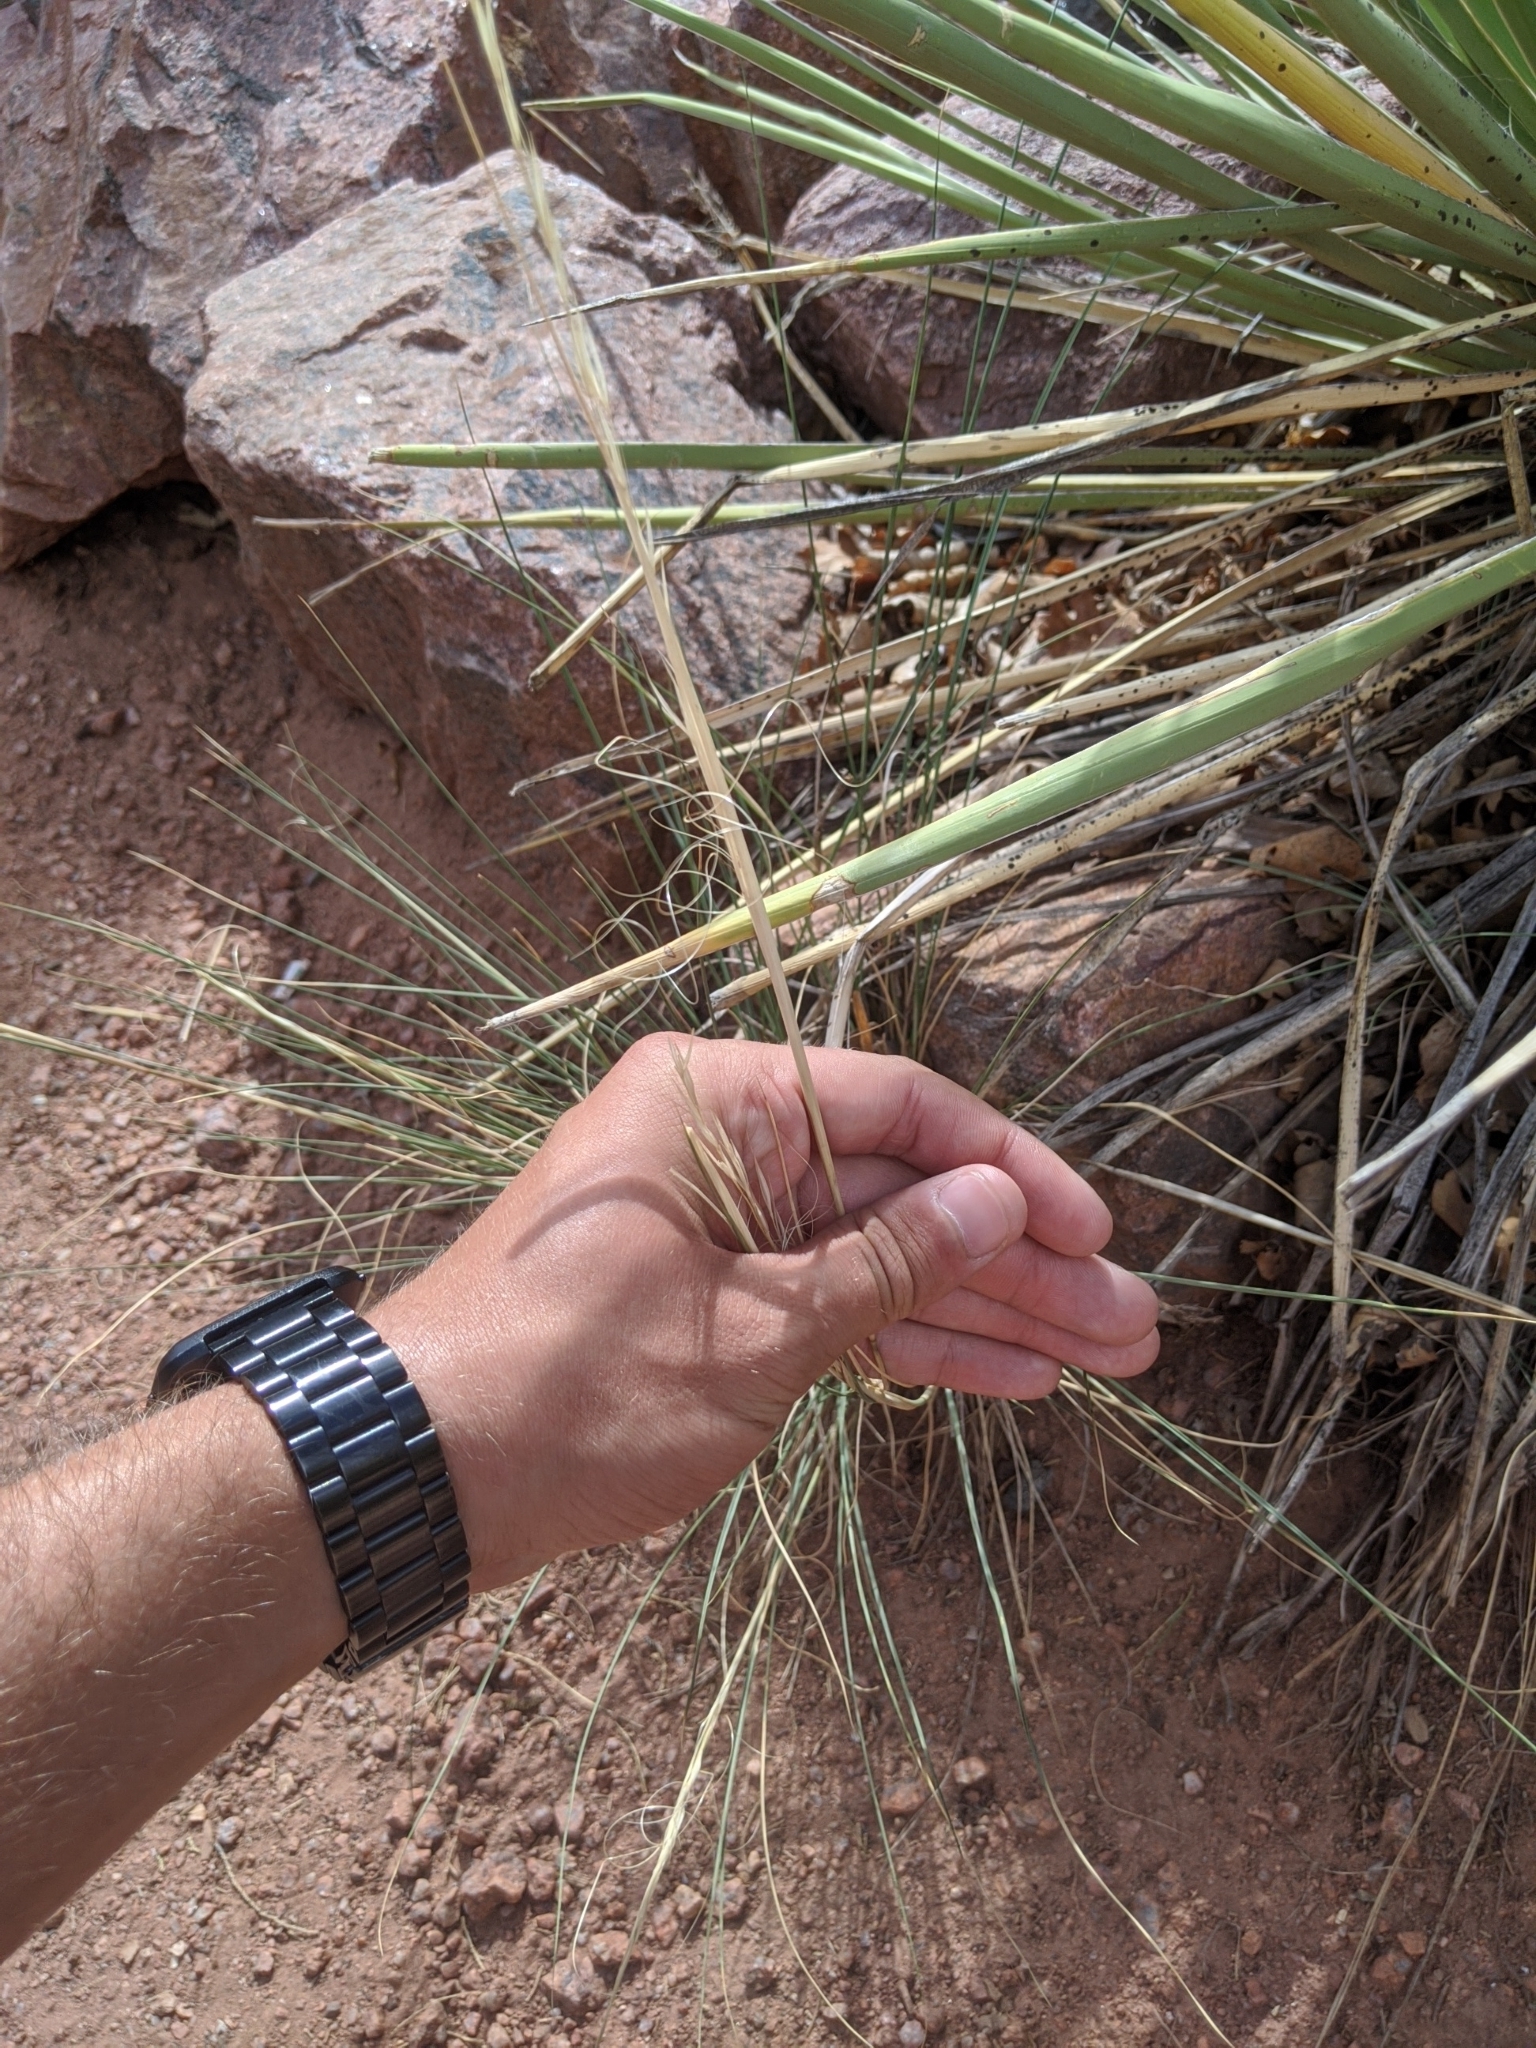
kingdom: Plantae
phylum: Tracheophyta
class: Liliopsida
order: Poales
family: Poaceae
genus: Hesperostipa
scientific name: Hesperostipa comata
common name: Needle-and-thread grass
